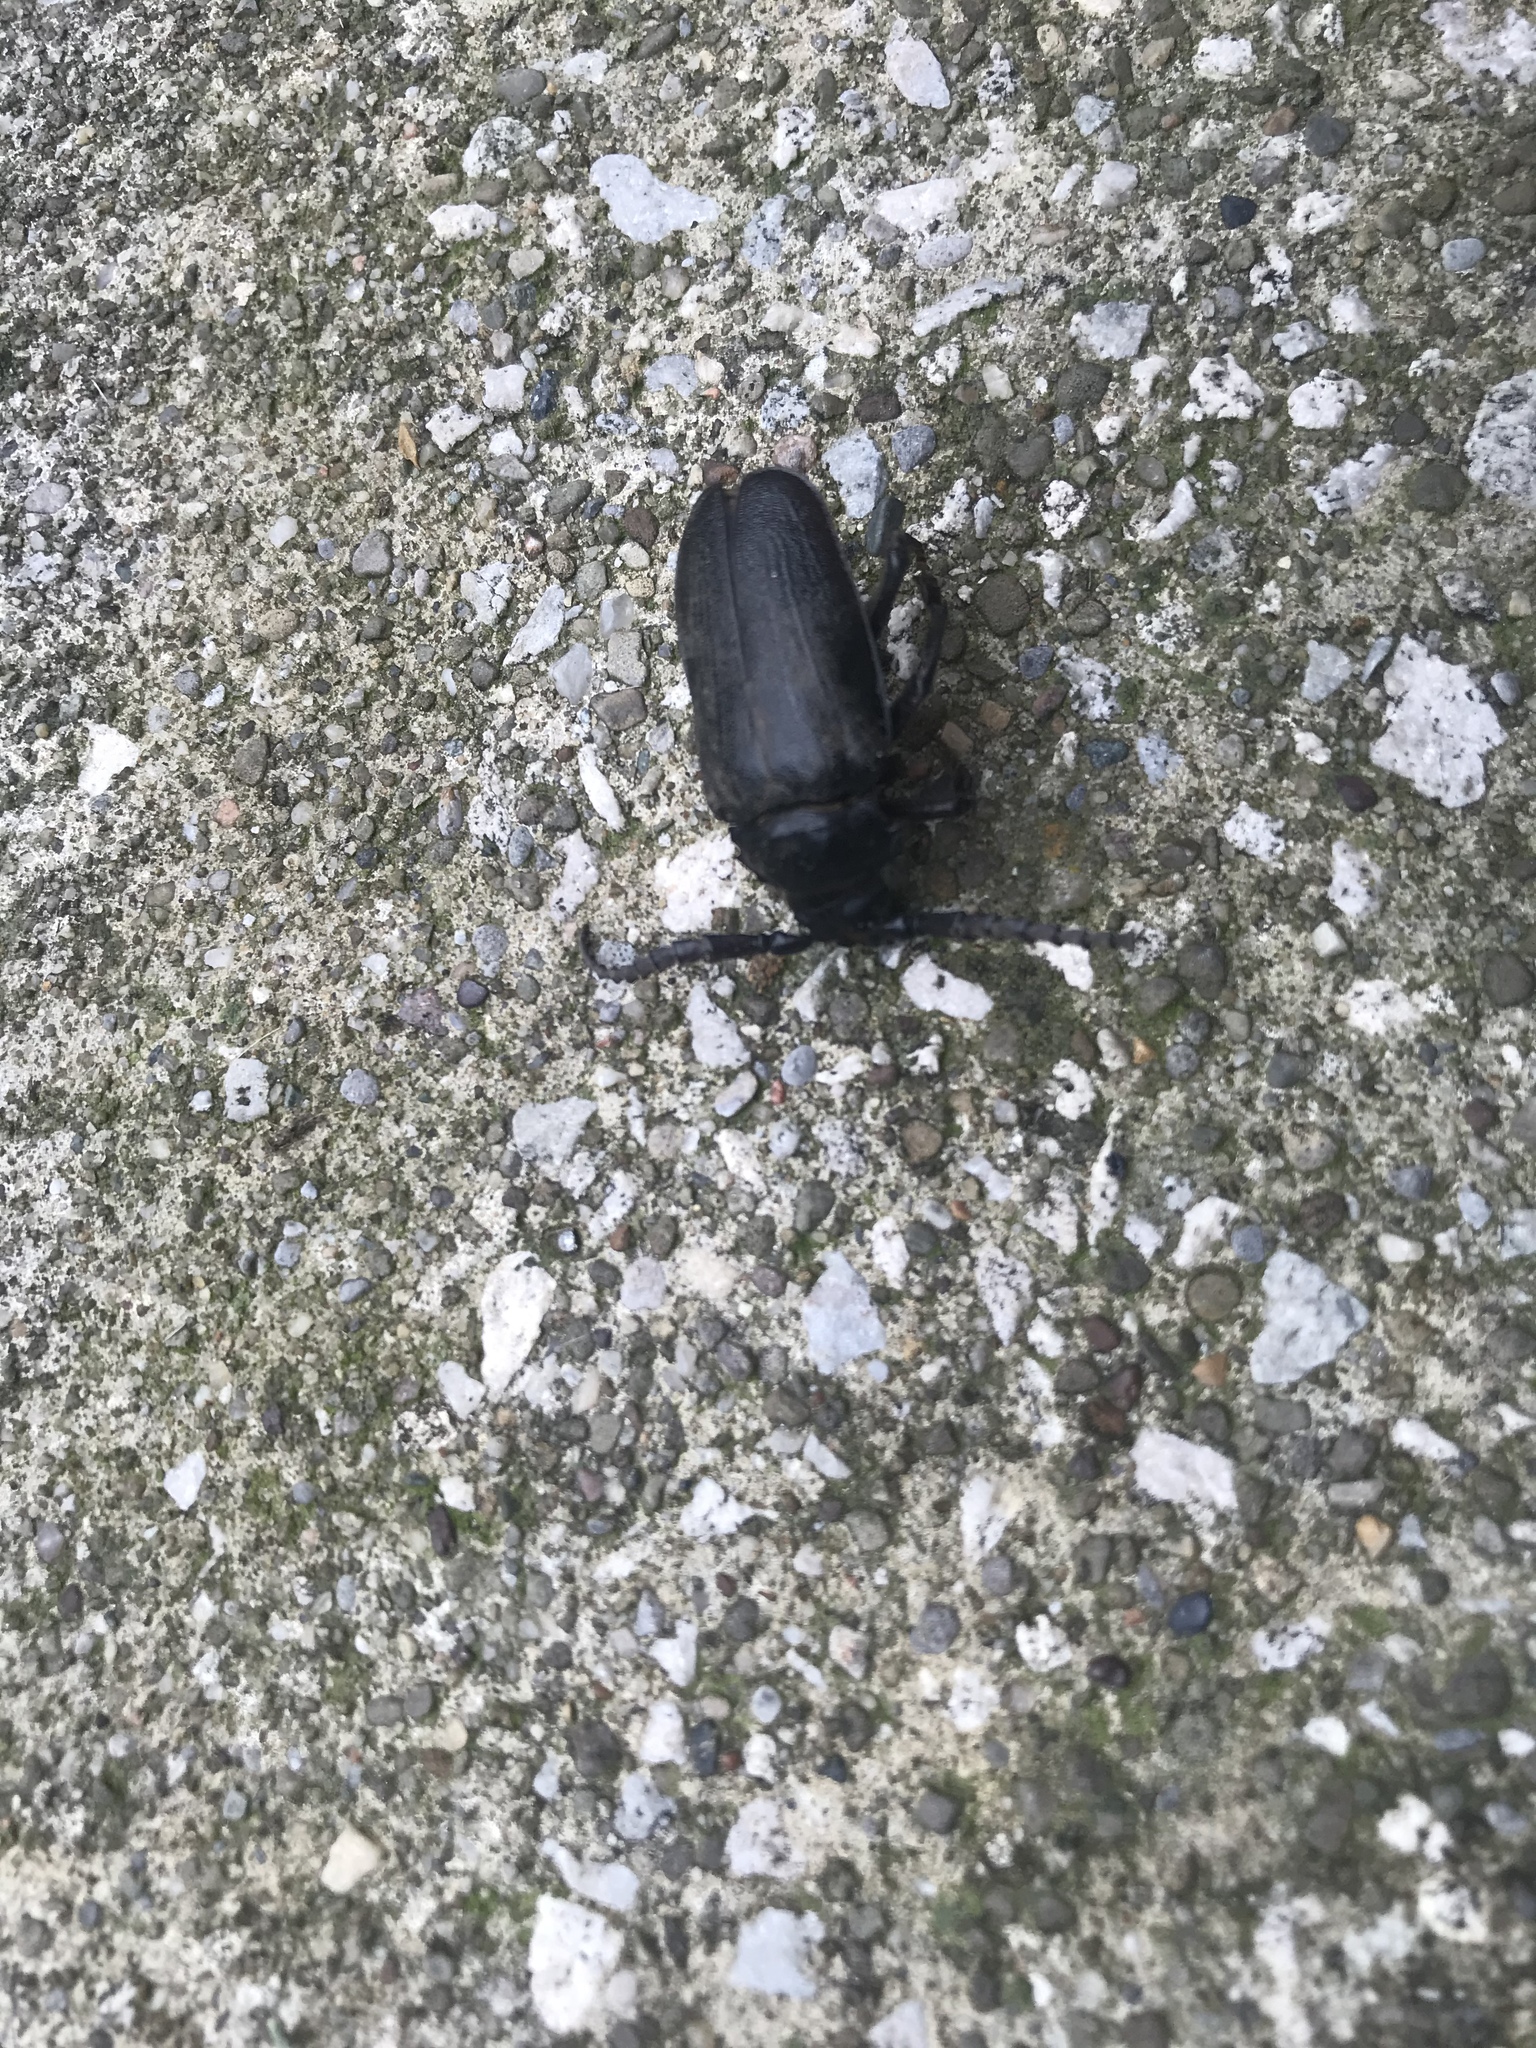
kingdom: Animalia
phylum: Arthropoda
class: Insecta
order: Coleoptera
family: Cerambycidae
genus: Prionus
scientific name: Prionus laticollis
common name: Broad necked prionus
